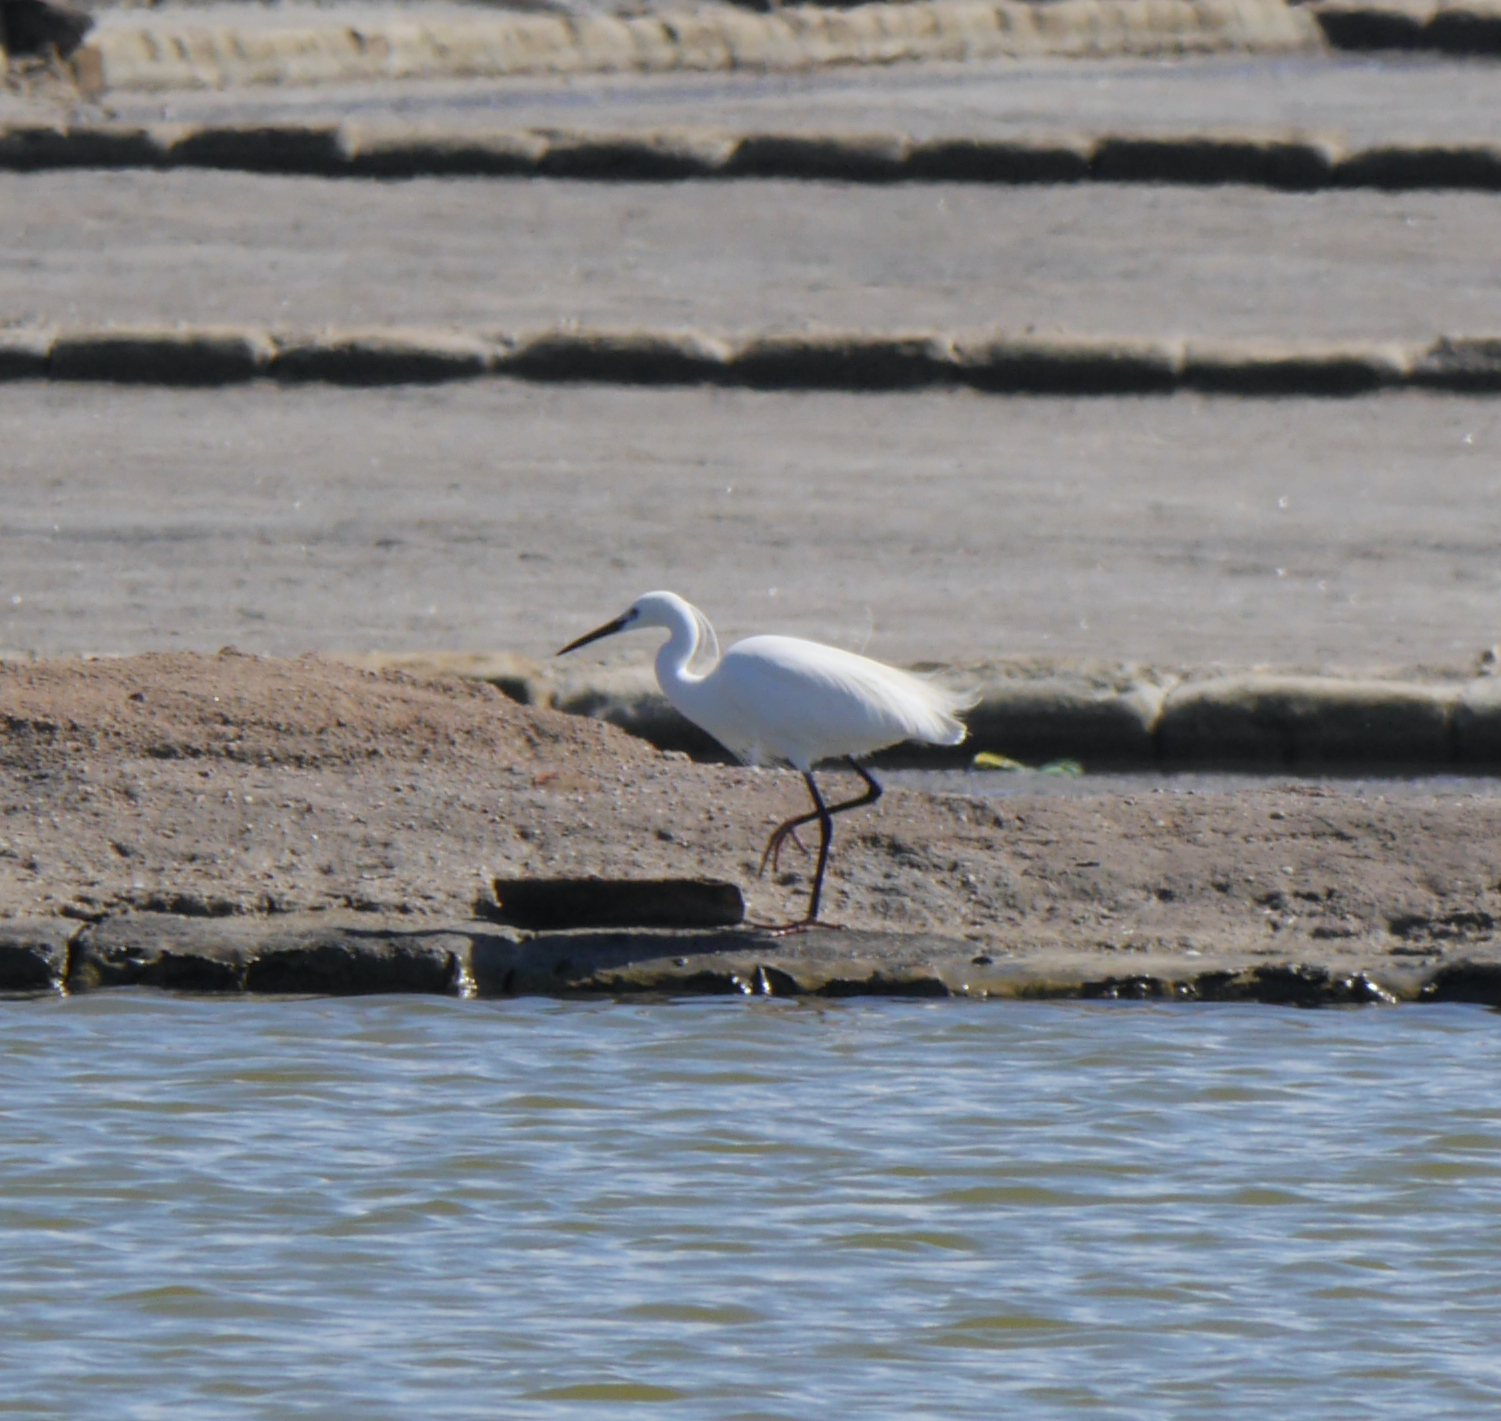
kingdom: Animalia
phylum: Chordata
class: Aves
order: Pelecaniformes
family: Ardeidae
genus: Egretta
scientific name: Egretta garzetta
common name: Little egret
